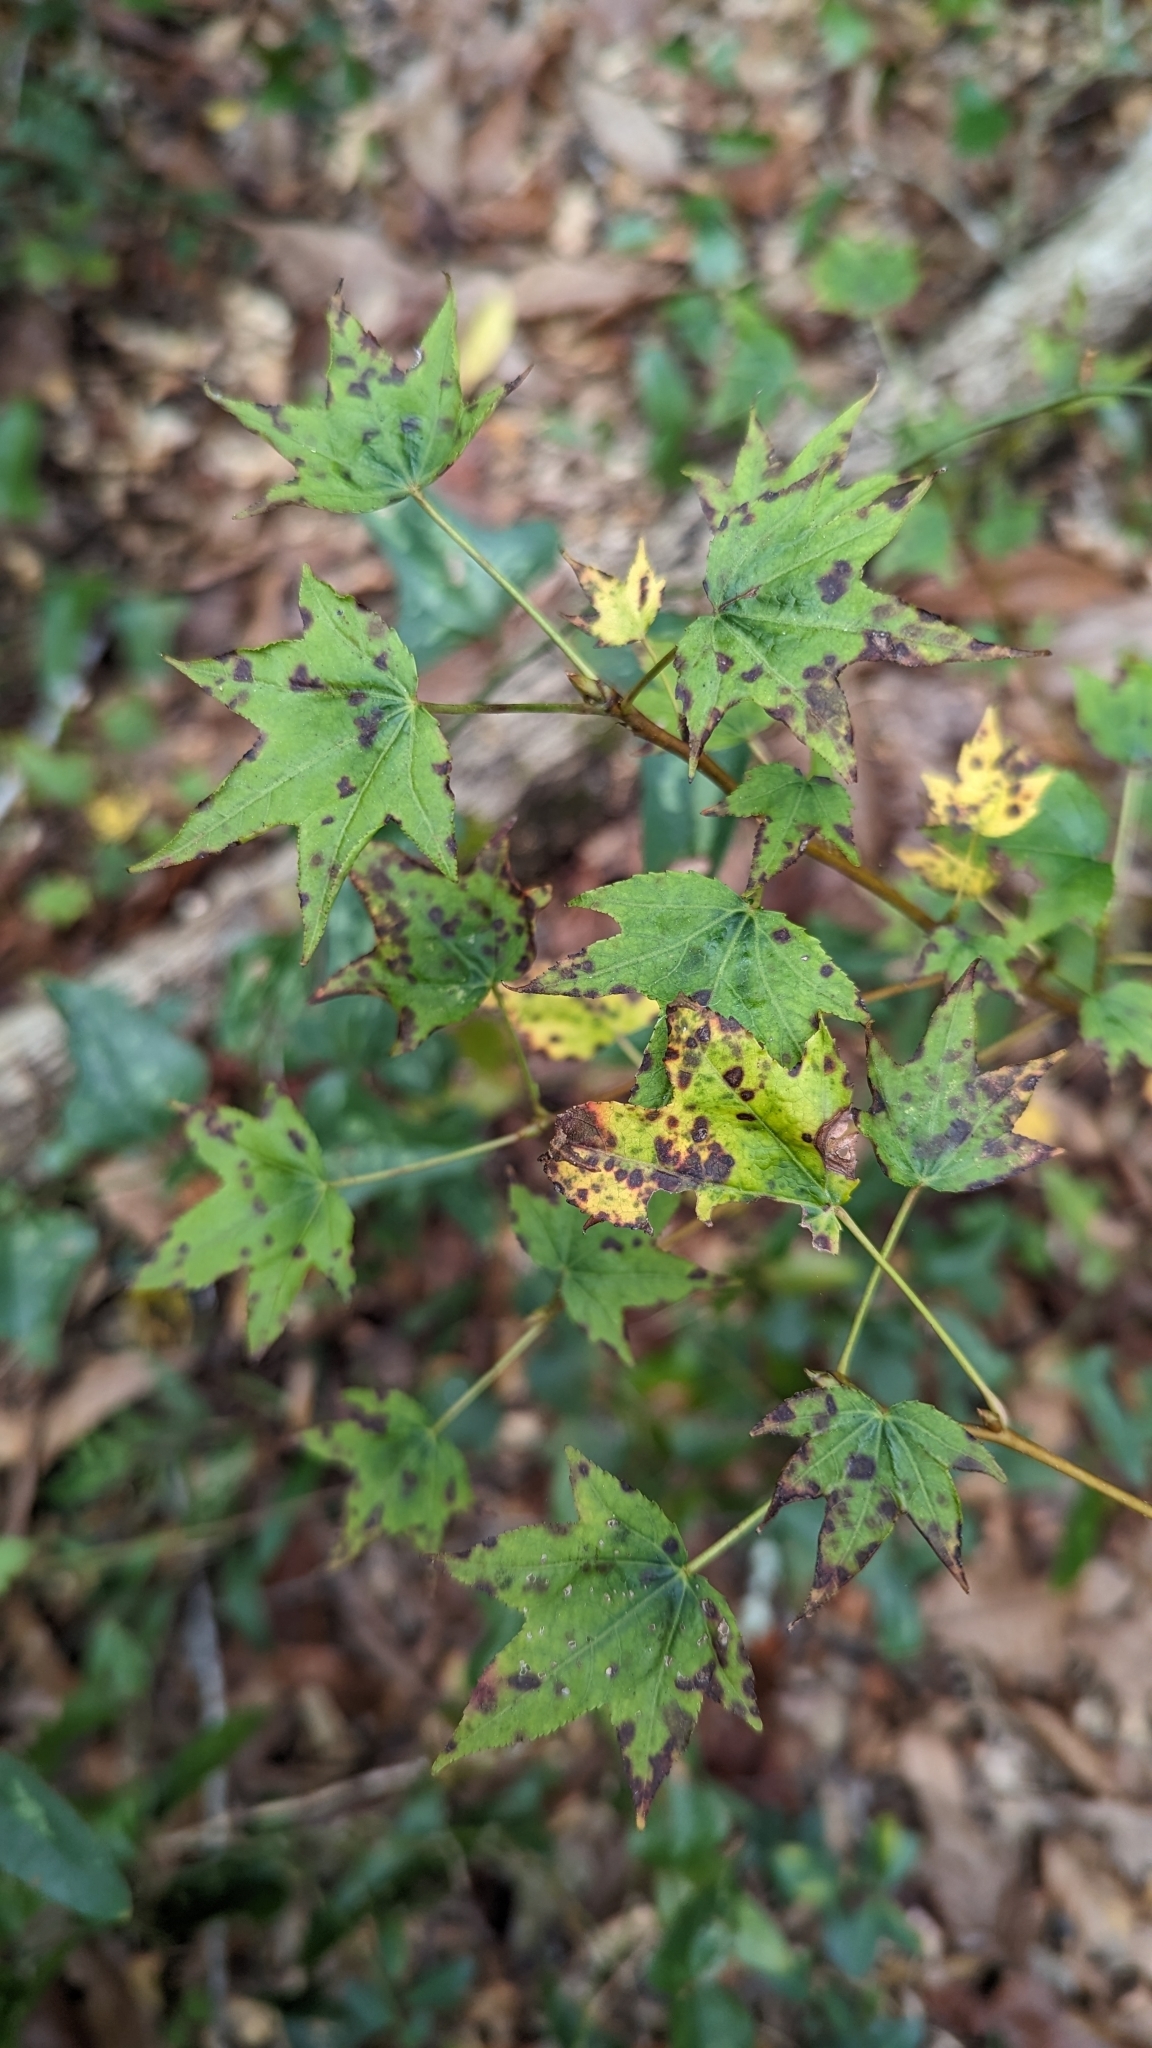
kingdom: Plantae
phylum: Tracheophyta
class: Magnoliopsida
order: Saxifragales
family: Altingiaceae
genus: Liquidambar
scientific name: Liquidambar styraciflua
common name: Sweet gum
